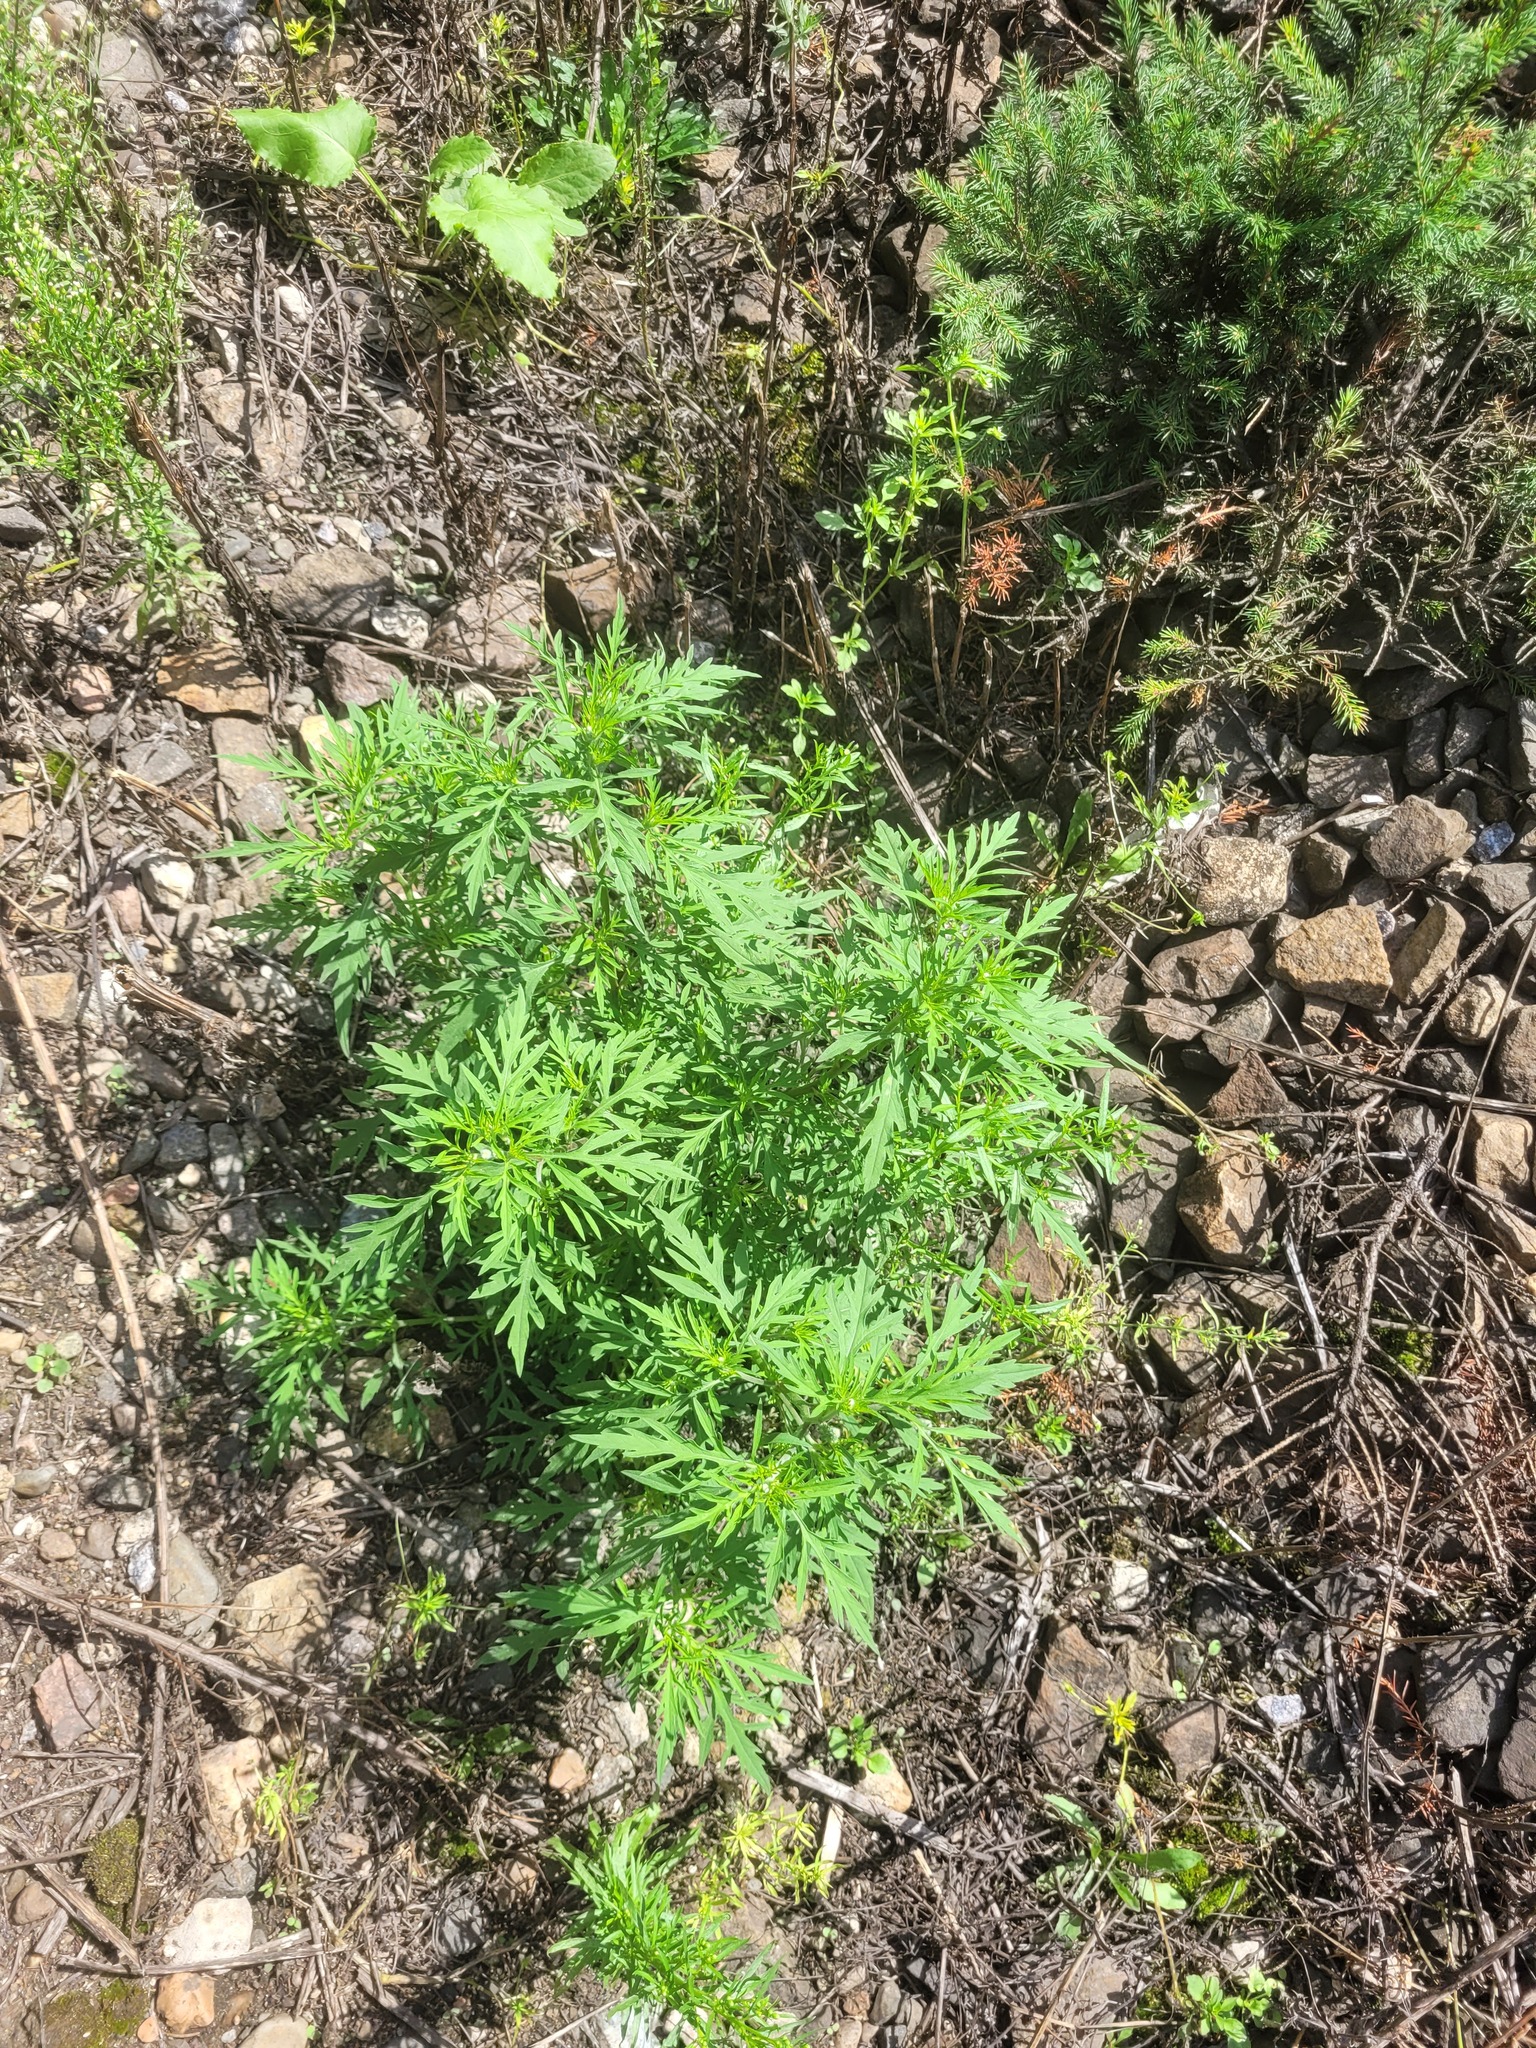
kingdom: Plantae
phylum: Tracheophyta
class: Magnoliopsida
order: Asterales
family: Asteraceae
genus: Ambrosia
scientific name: Ambrosia artemisiifolia
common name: Annual ragweed
